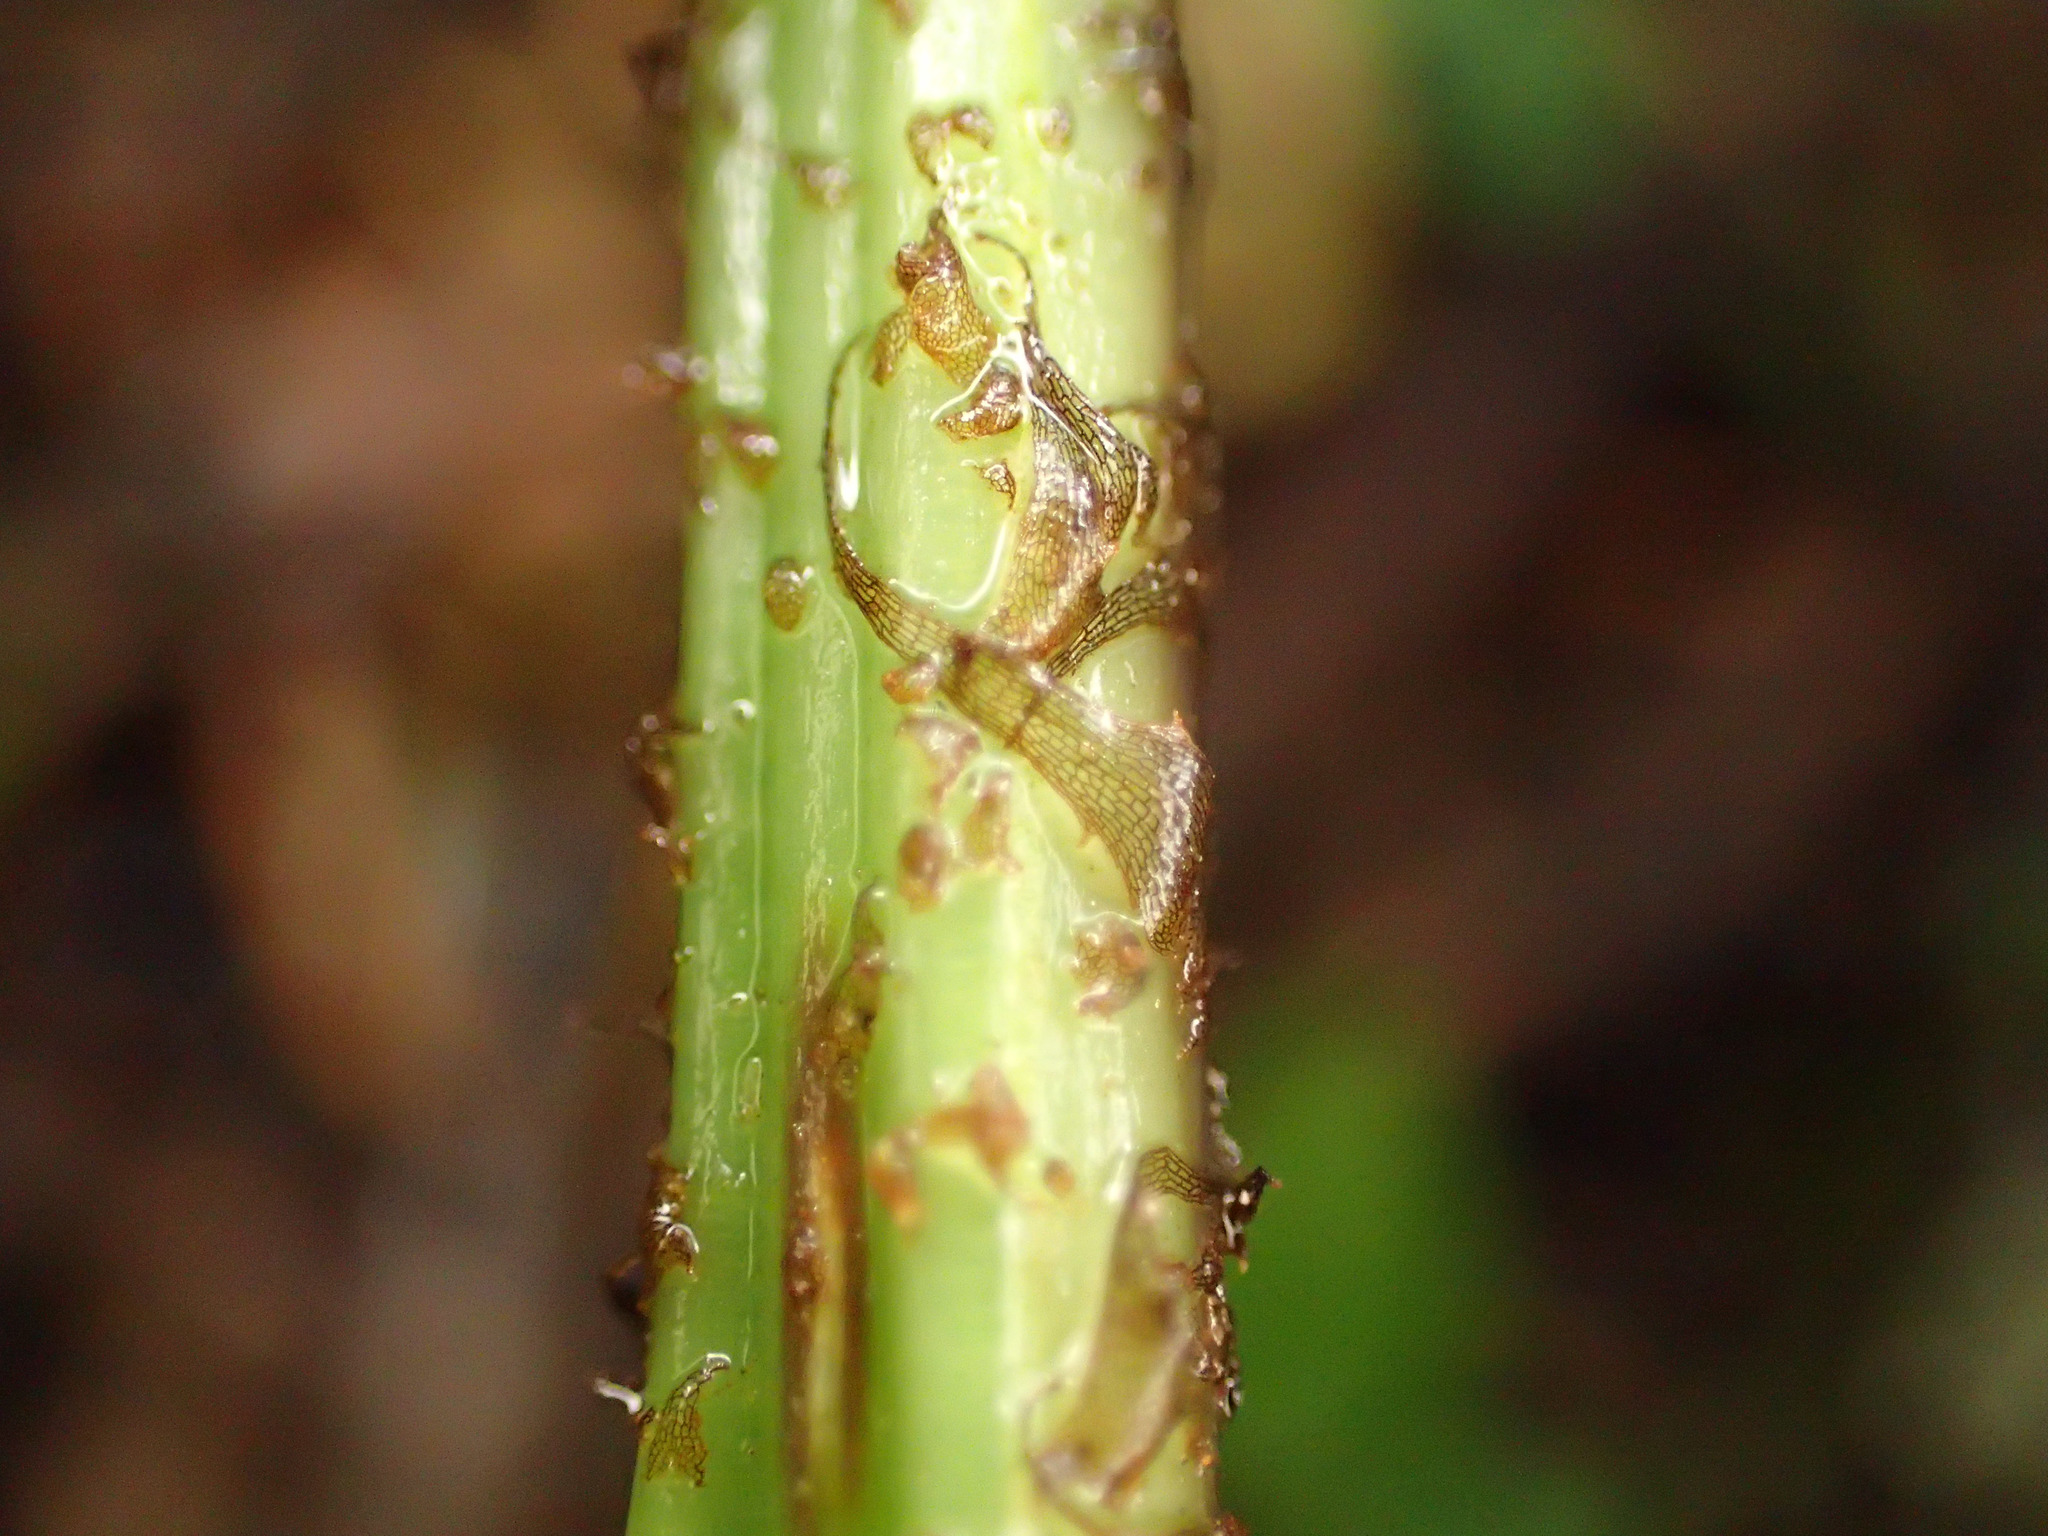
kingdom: Plantae
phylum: Tracheophyta
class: Polypodiopsida
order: Polypodiales
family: Aspleniaceae
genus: Asplenium
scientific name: Asplenium
